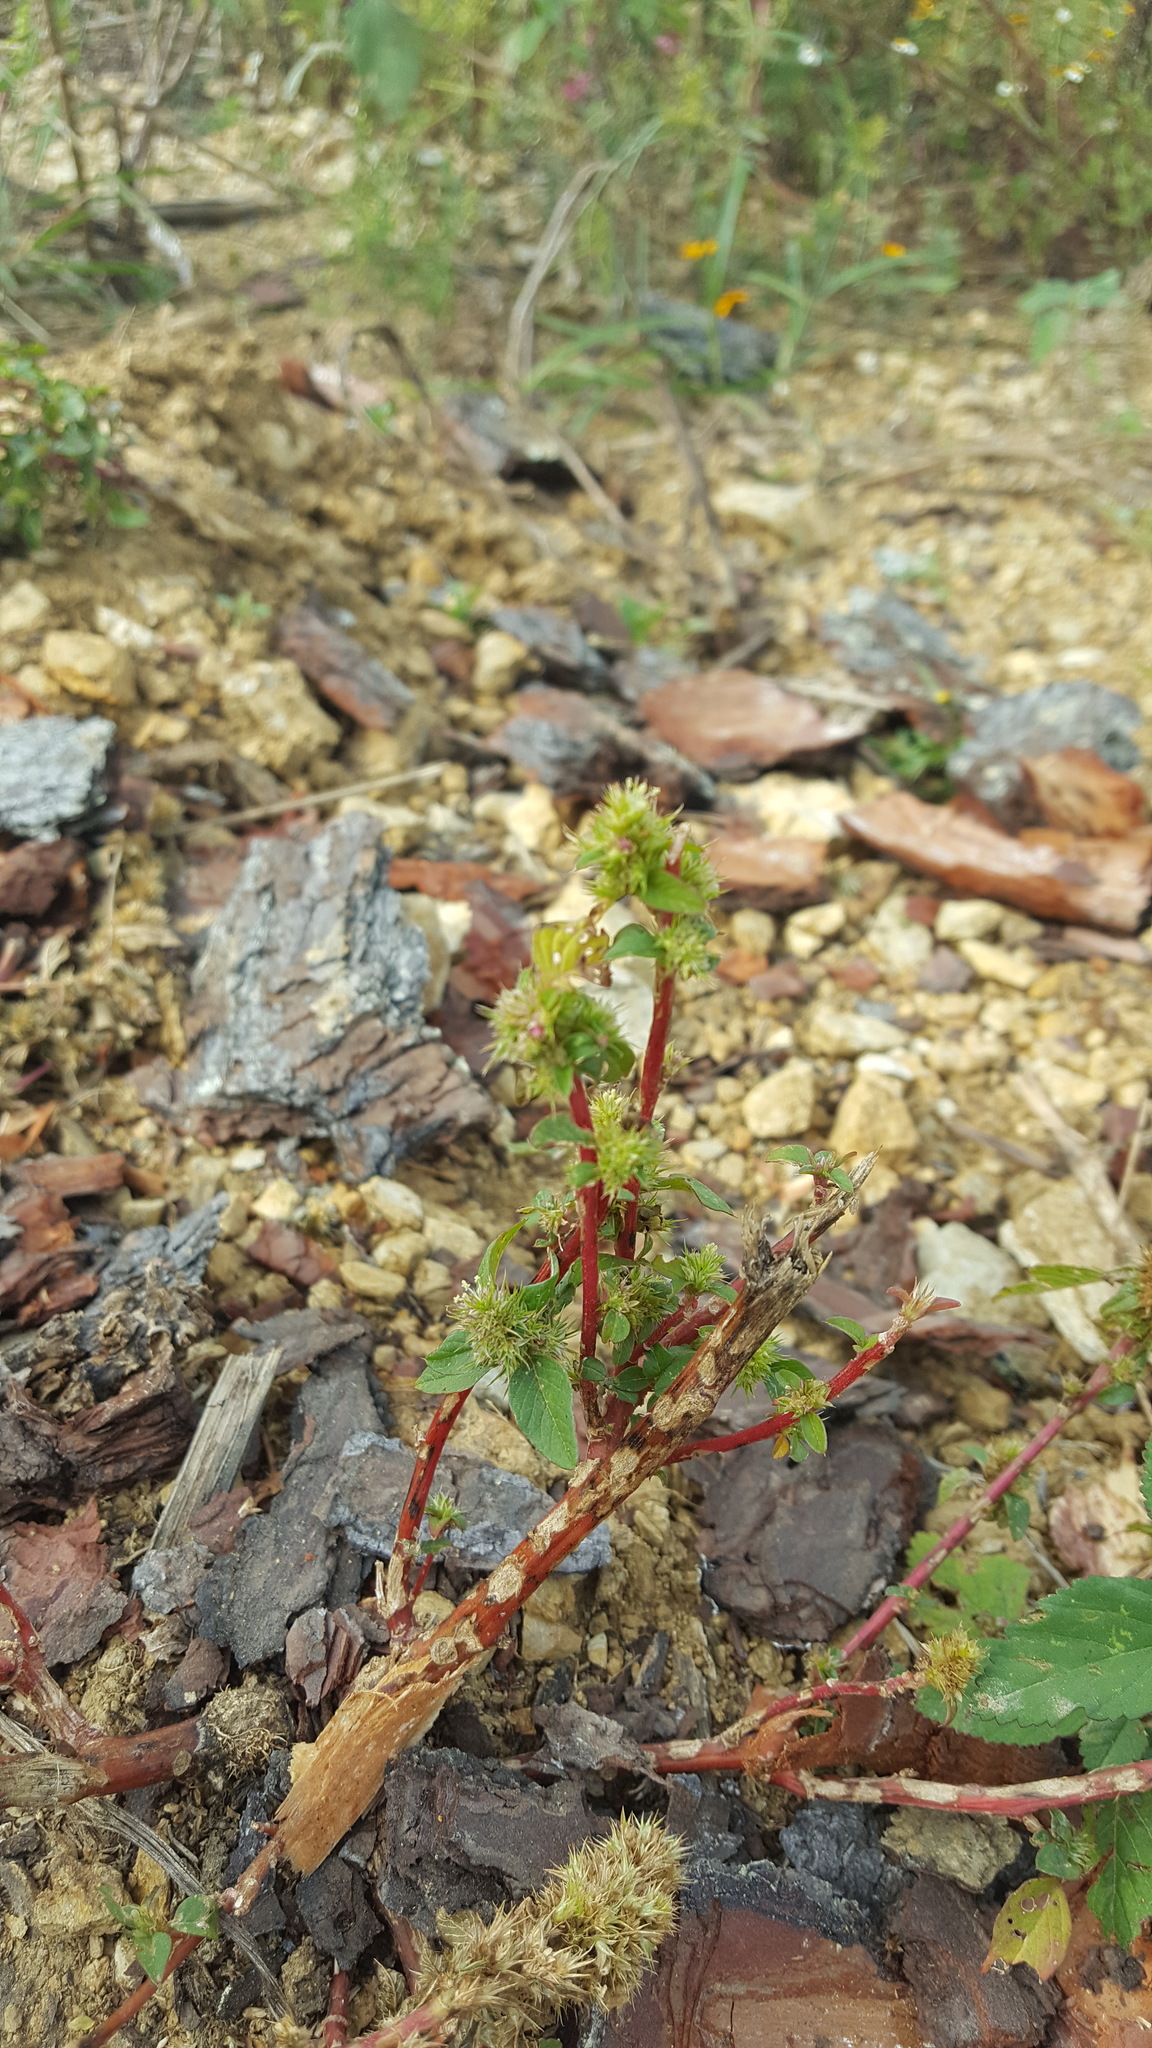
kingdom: Plantae
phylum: Tracheophyta
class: Magnoliopsida
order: Caryophyllales
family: Amaranthaceae
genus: Amaranthus
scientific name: Amaranthus hybridus
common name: Green amaranth
